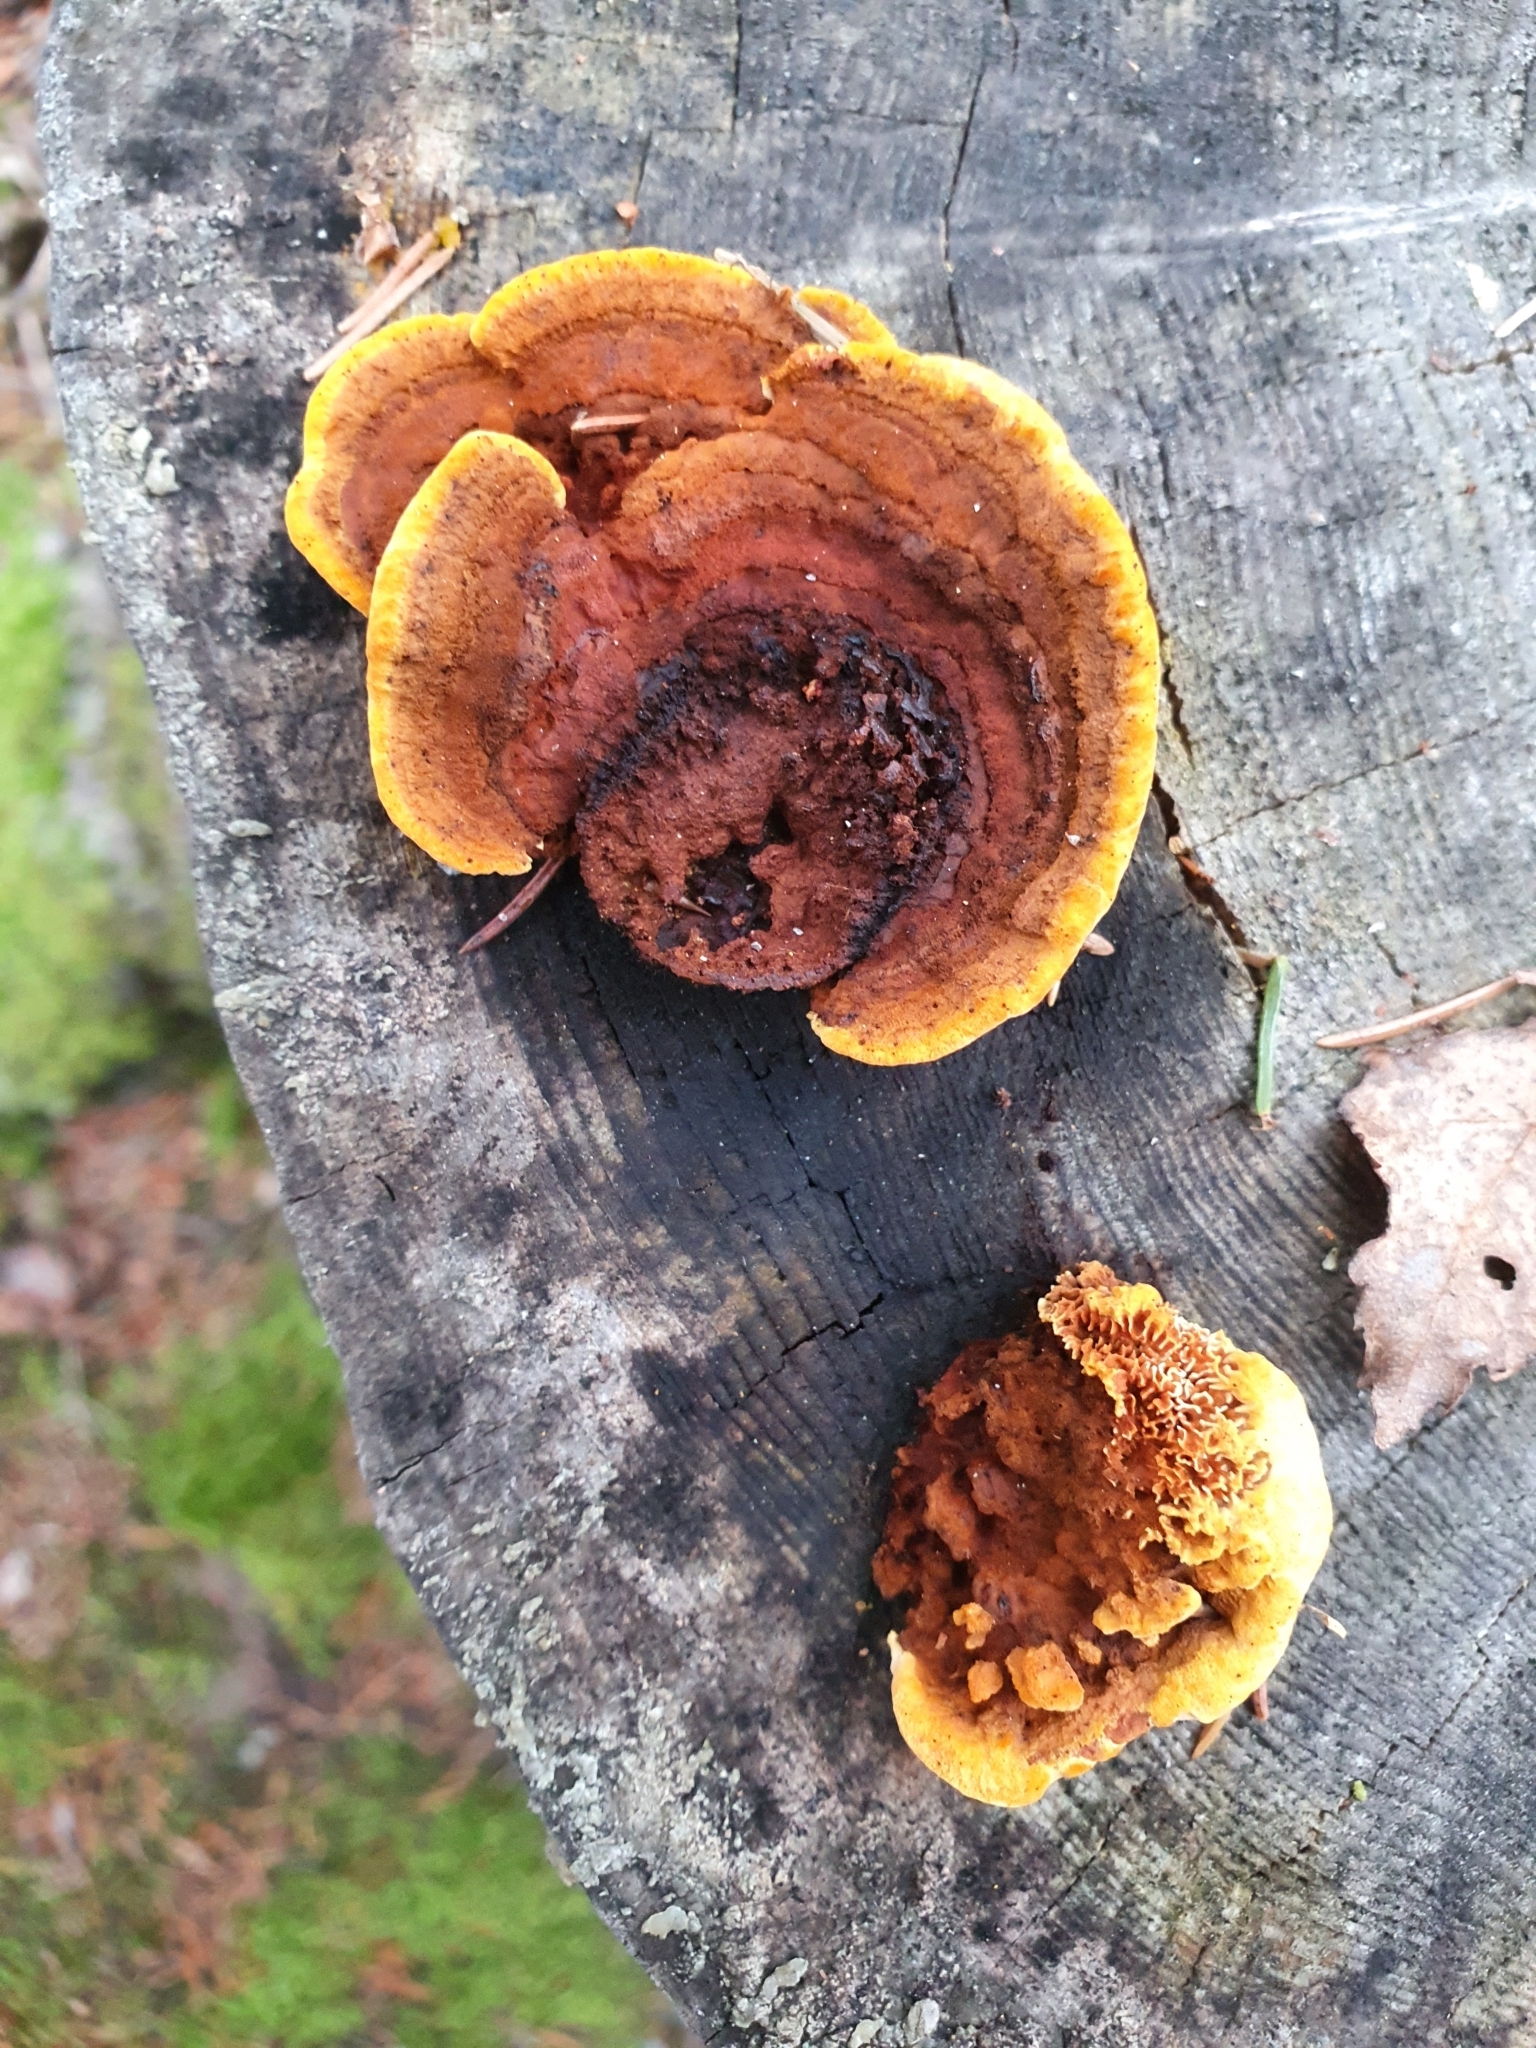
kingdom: Fungi
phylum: Basidiomycota
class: Agaricomycetes
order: Gloeophyllales
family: Gloeophyllaceae
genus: Gloeophyllum
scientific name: Gloeophyllum sepiarium
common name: Conifer mazegill
